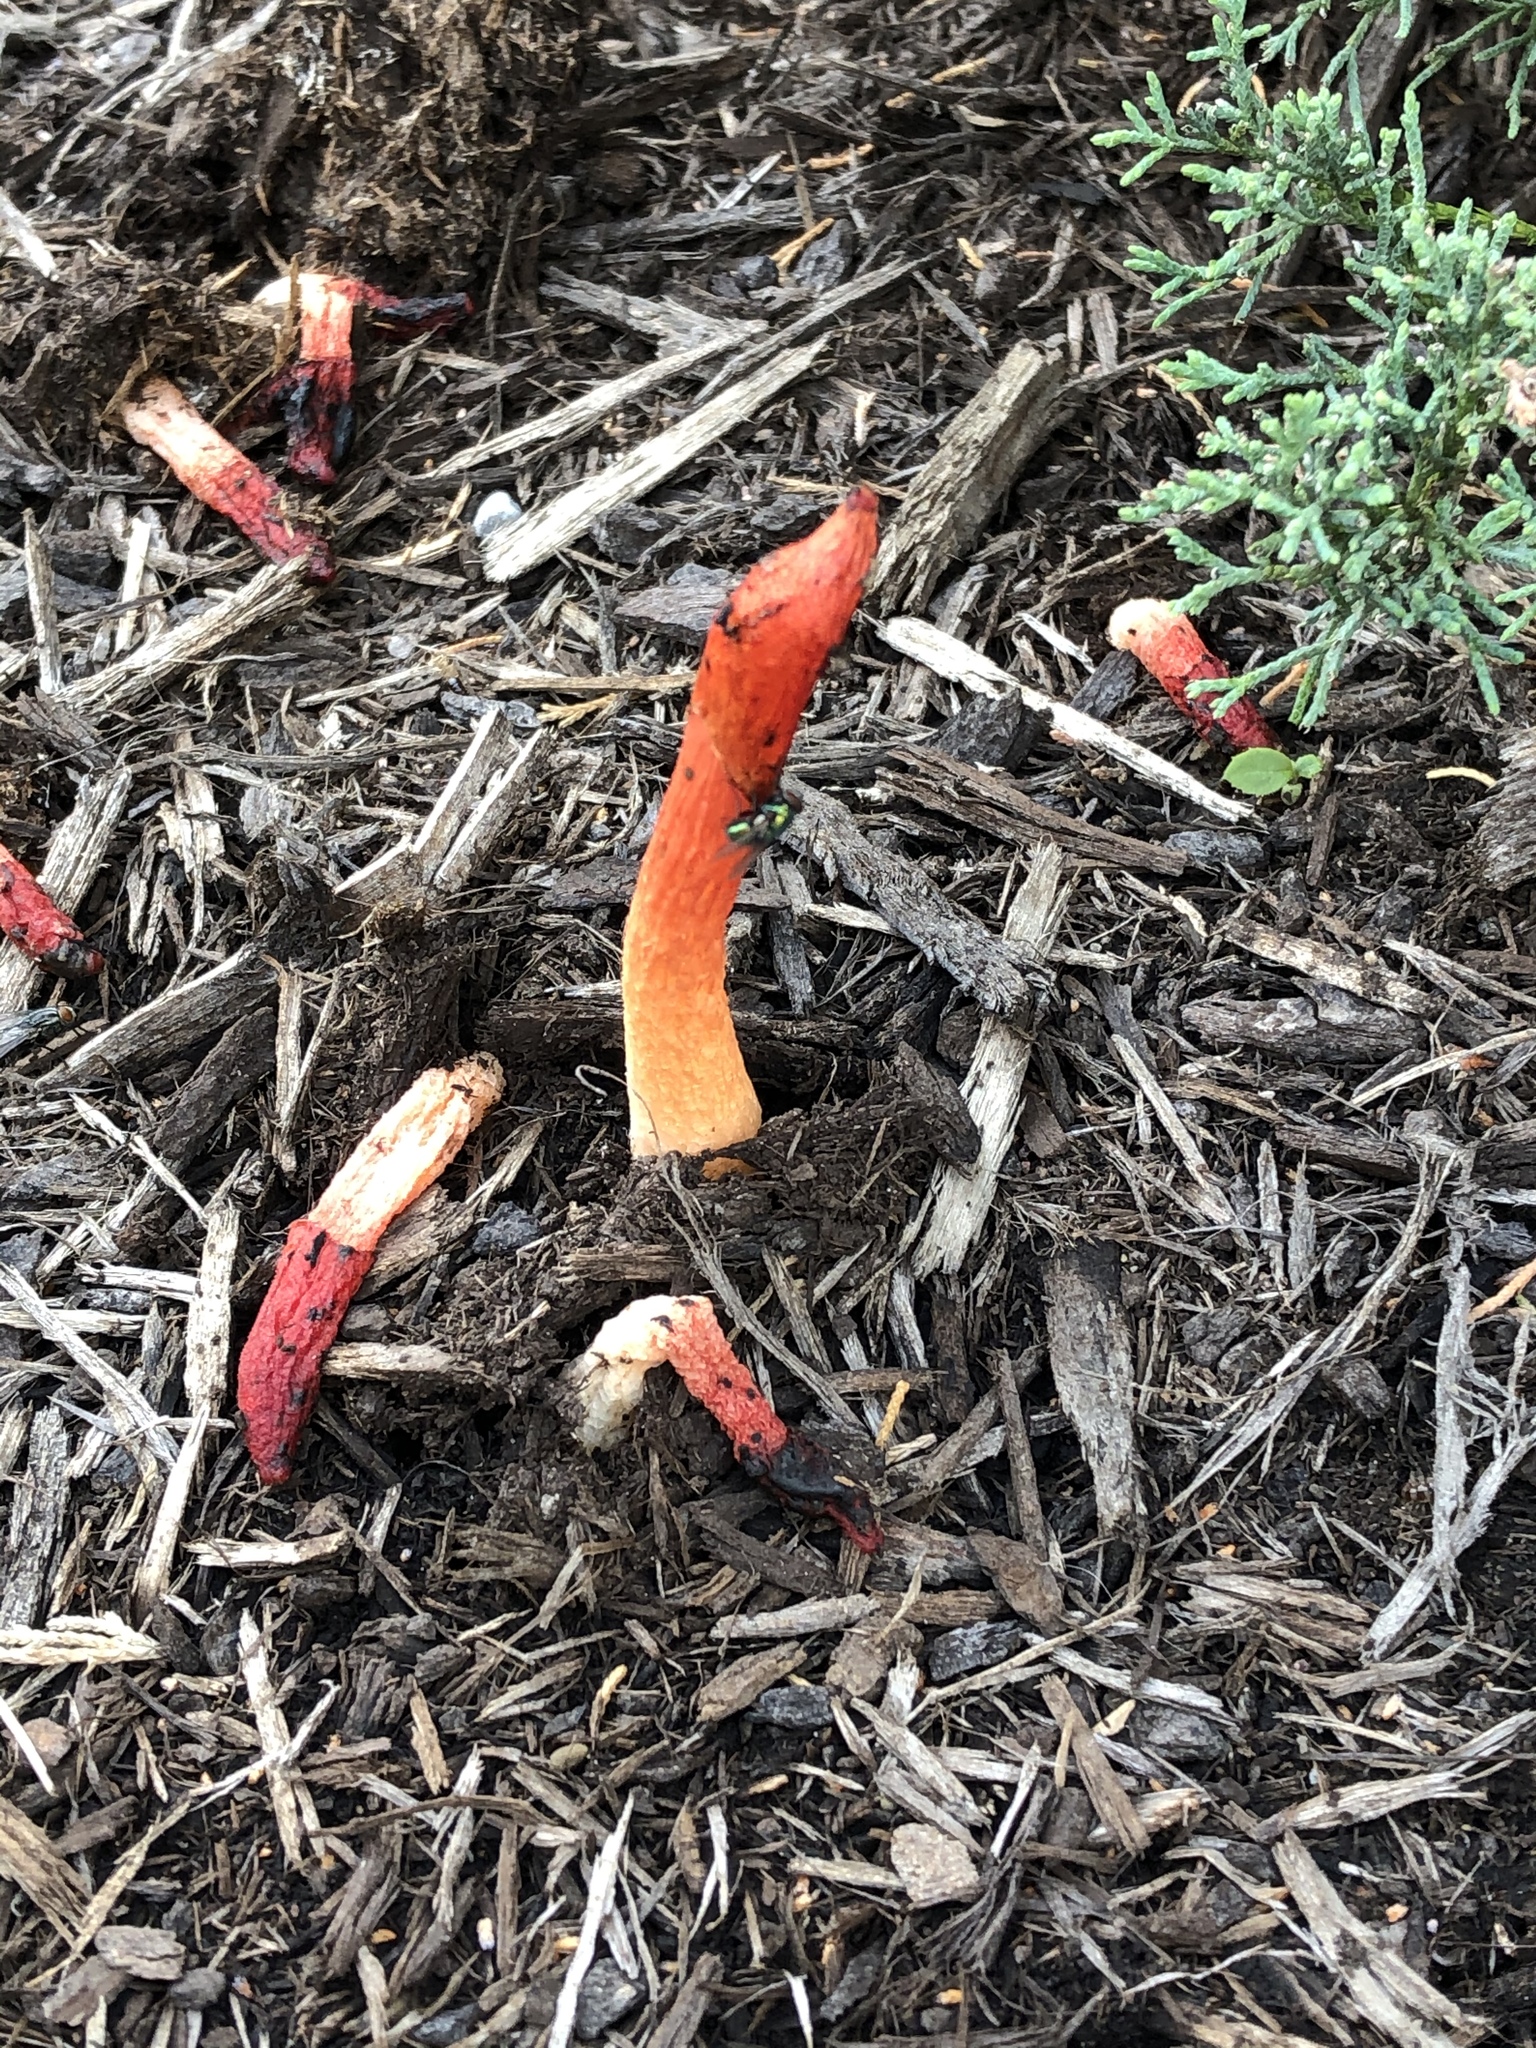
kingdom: Fungi
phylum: Basidiomycota
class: Agaricomycetes
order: Phallales
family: Phallaceae
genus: Phallus
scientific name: Phallus rugulosus
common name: Wrinkly stinkhorn
